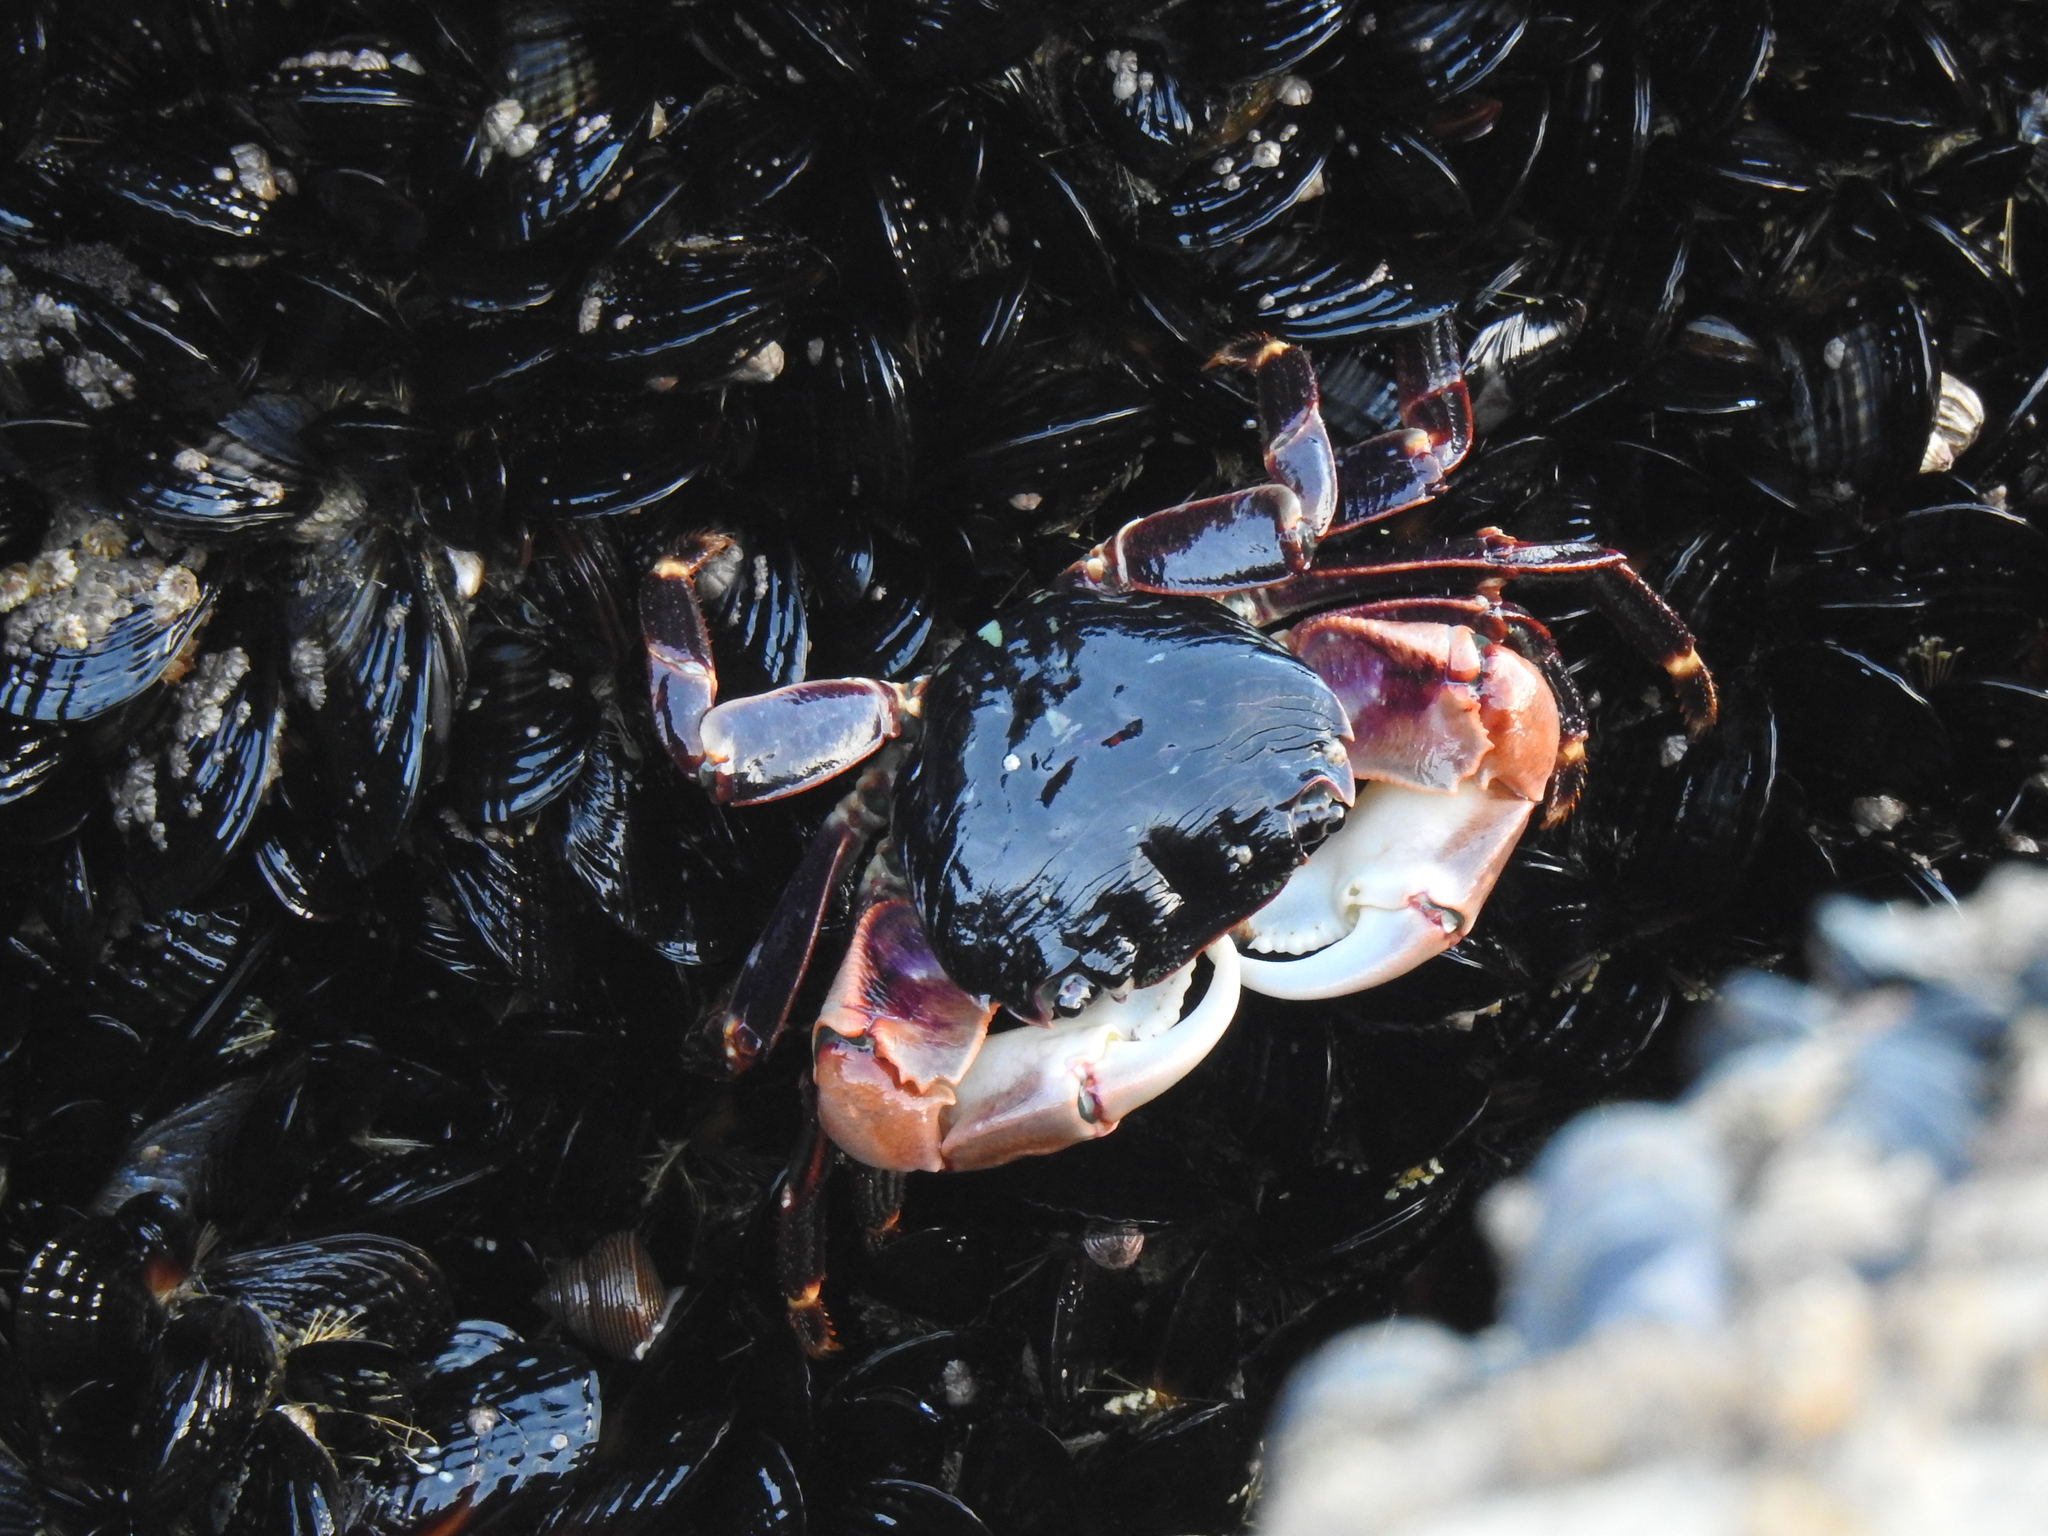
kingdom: Animalia
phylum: Arthropoda
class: Malacostraca
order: Decapoda
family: Grapsidae
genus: Pachygrapsus
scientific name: Pachygrapsus crassipes
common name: Striped shore crab
